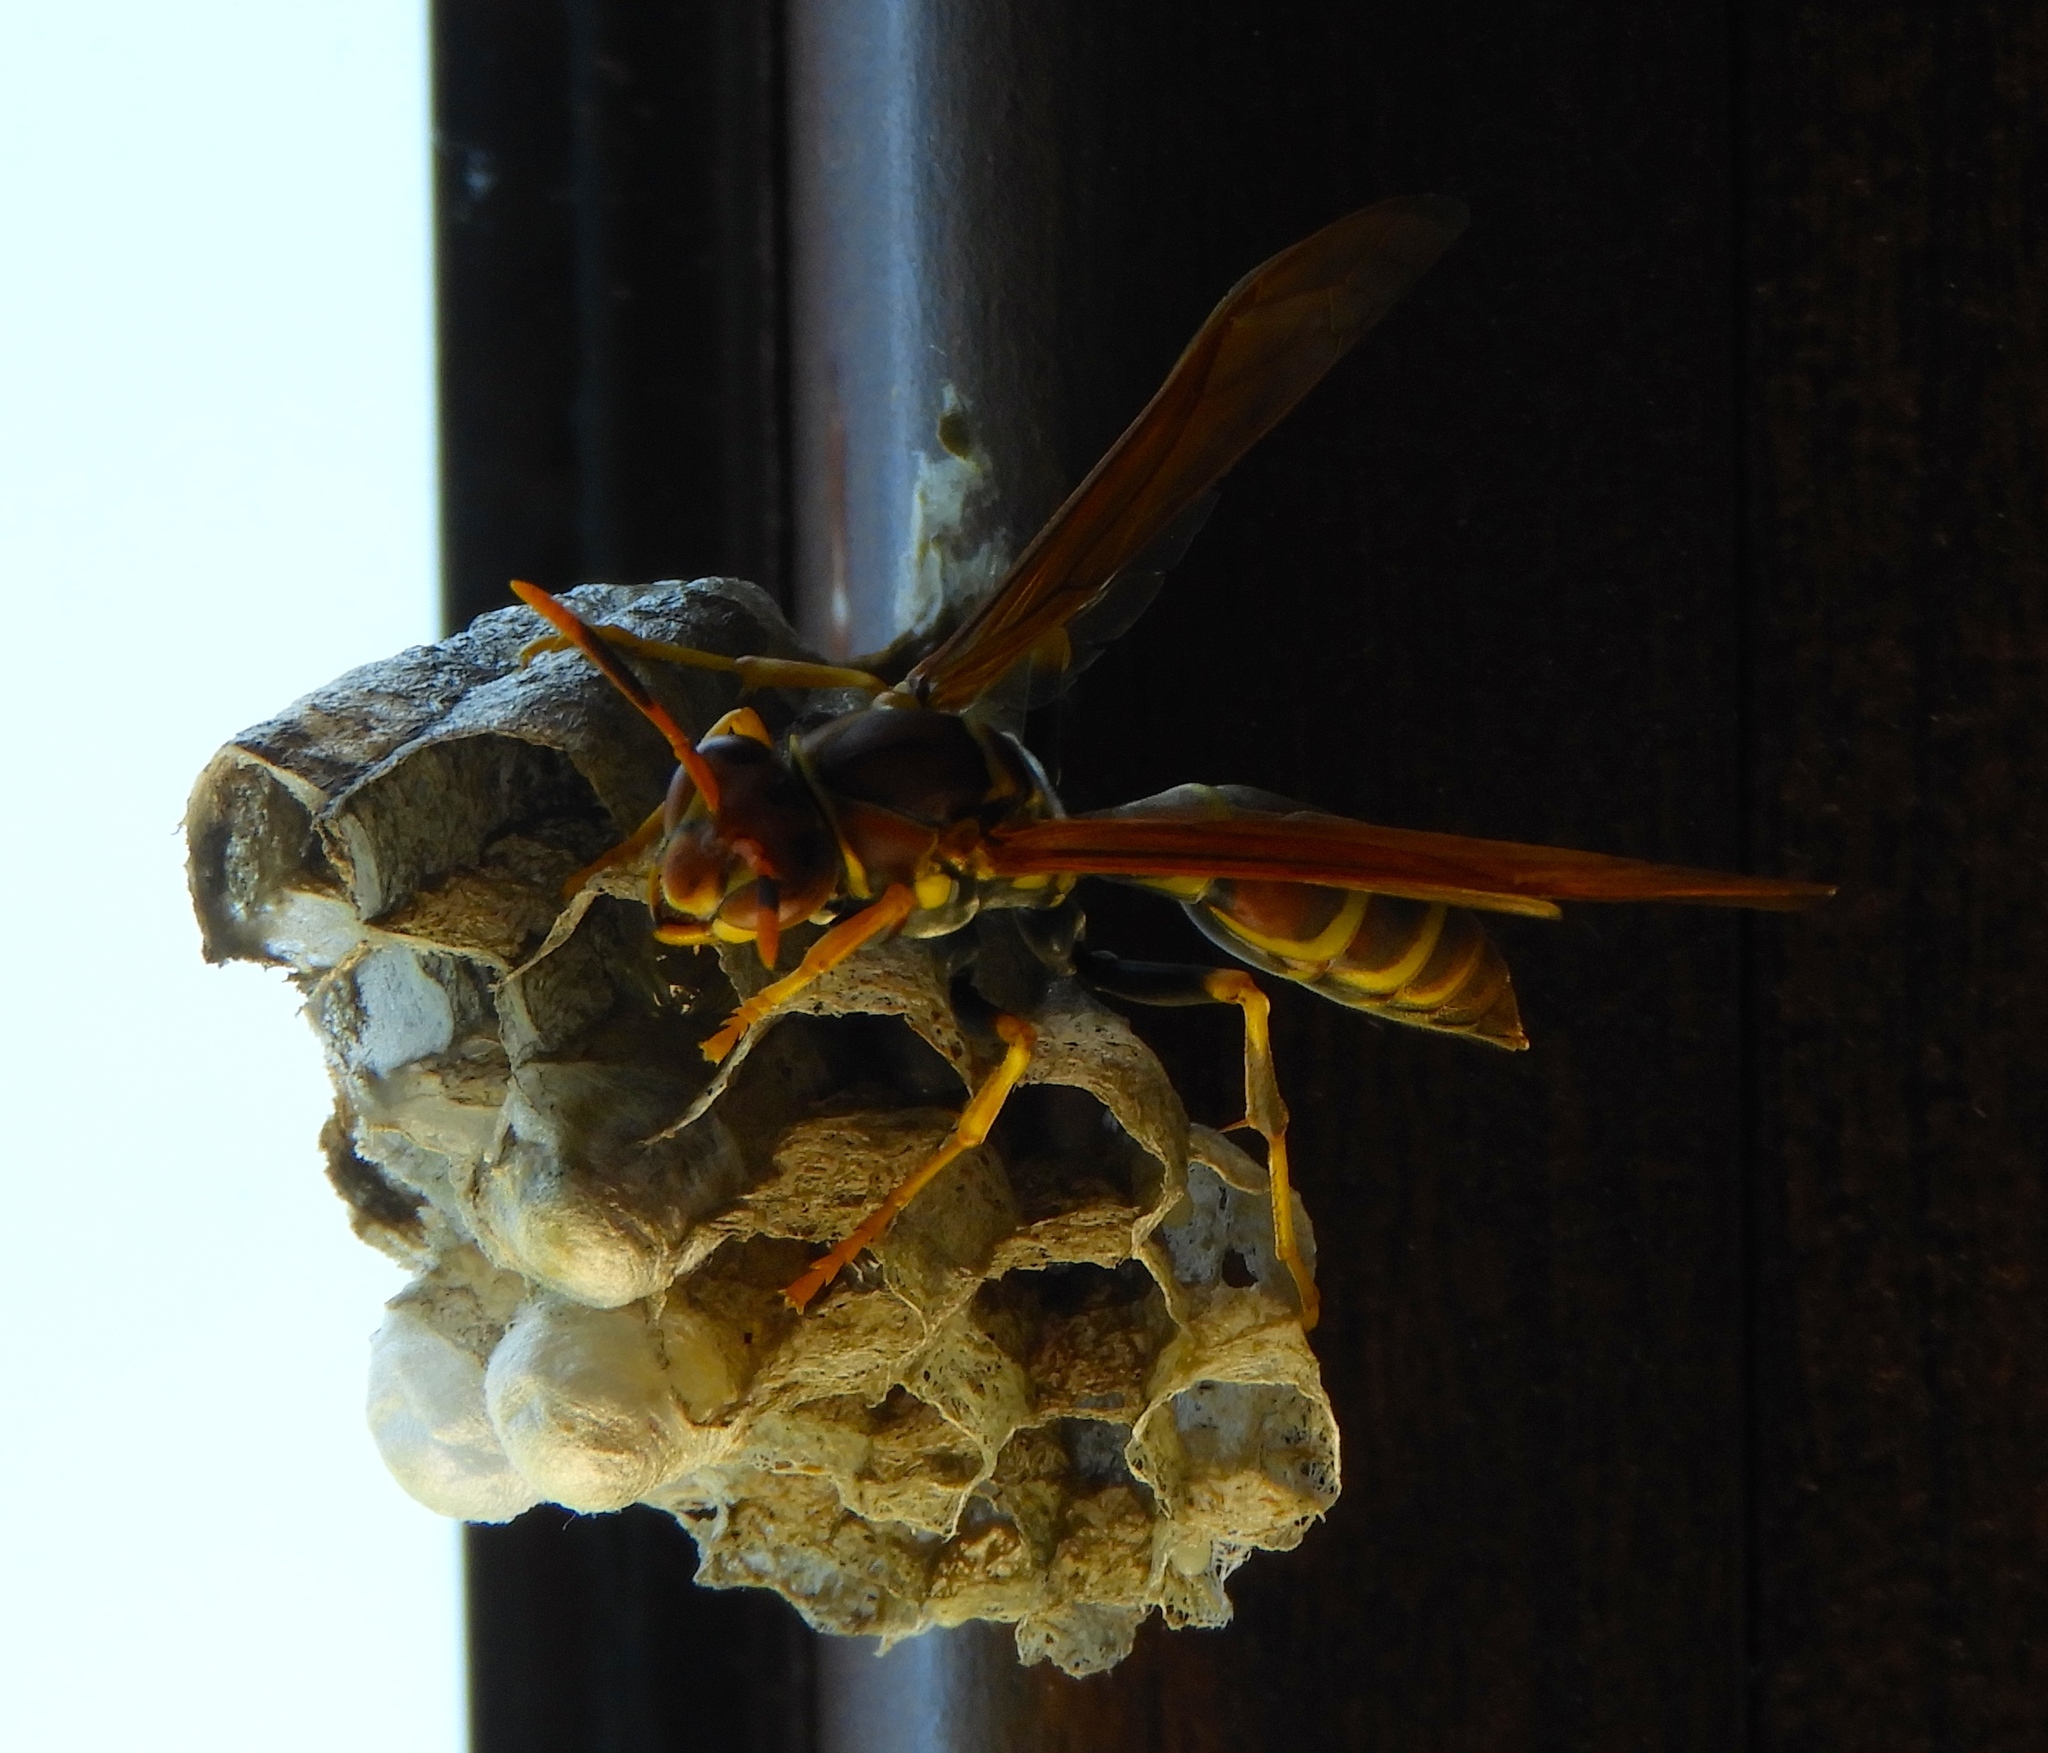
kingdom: Animalia
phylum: Arthropoda
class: Insecta
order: Hymenoptera
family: Eumenidae
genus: Polistes
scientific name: Polistes instabilis
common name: Unstable paper wasp
